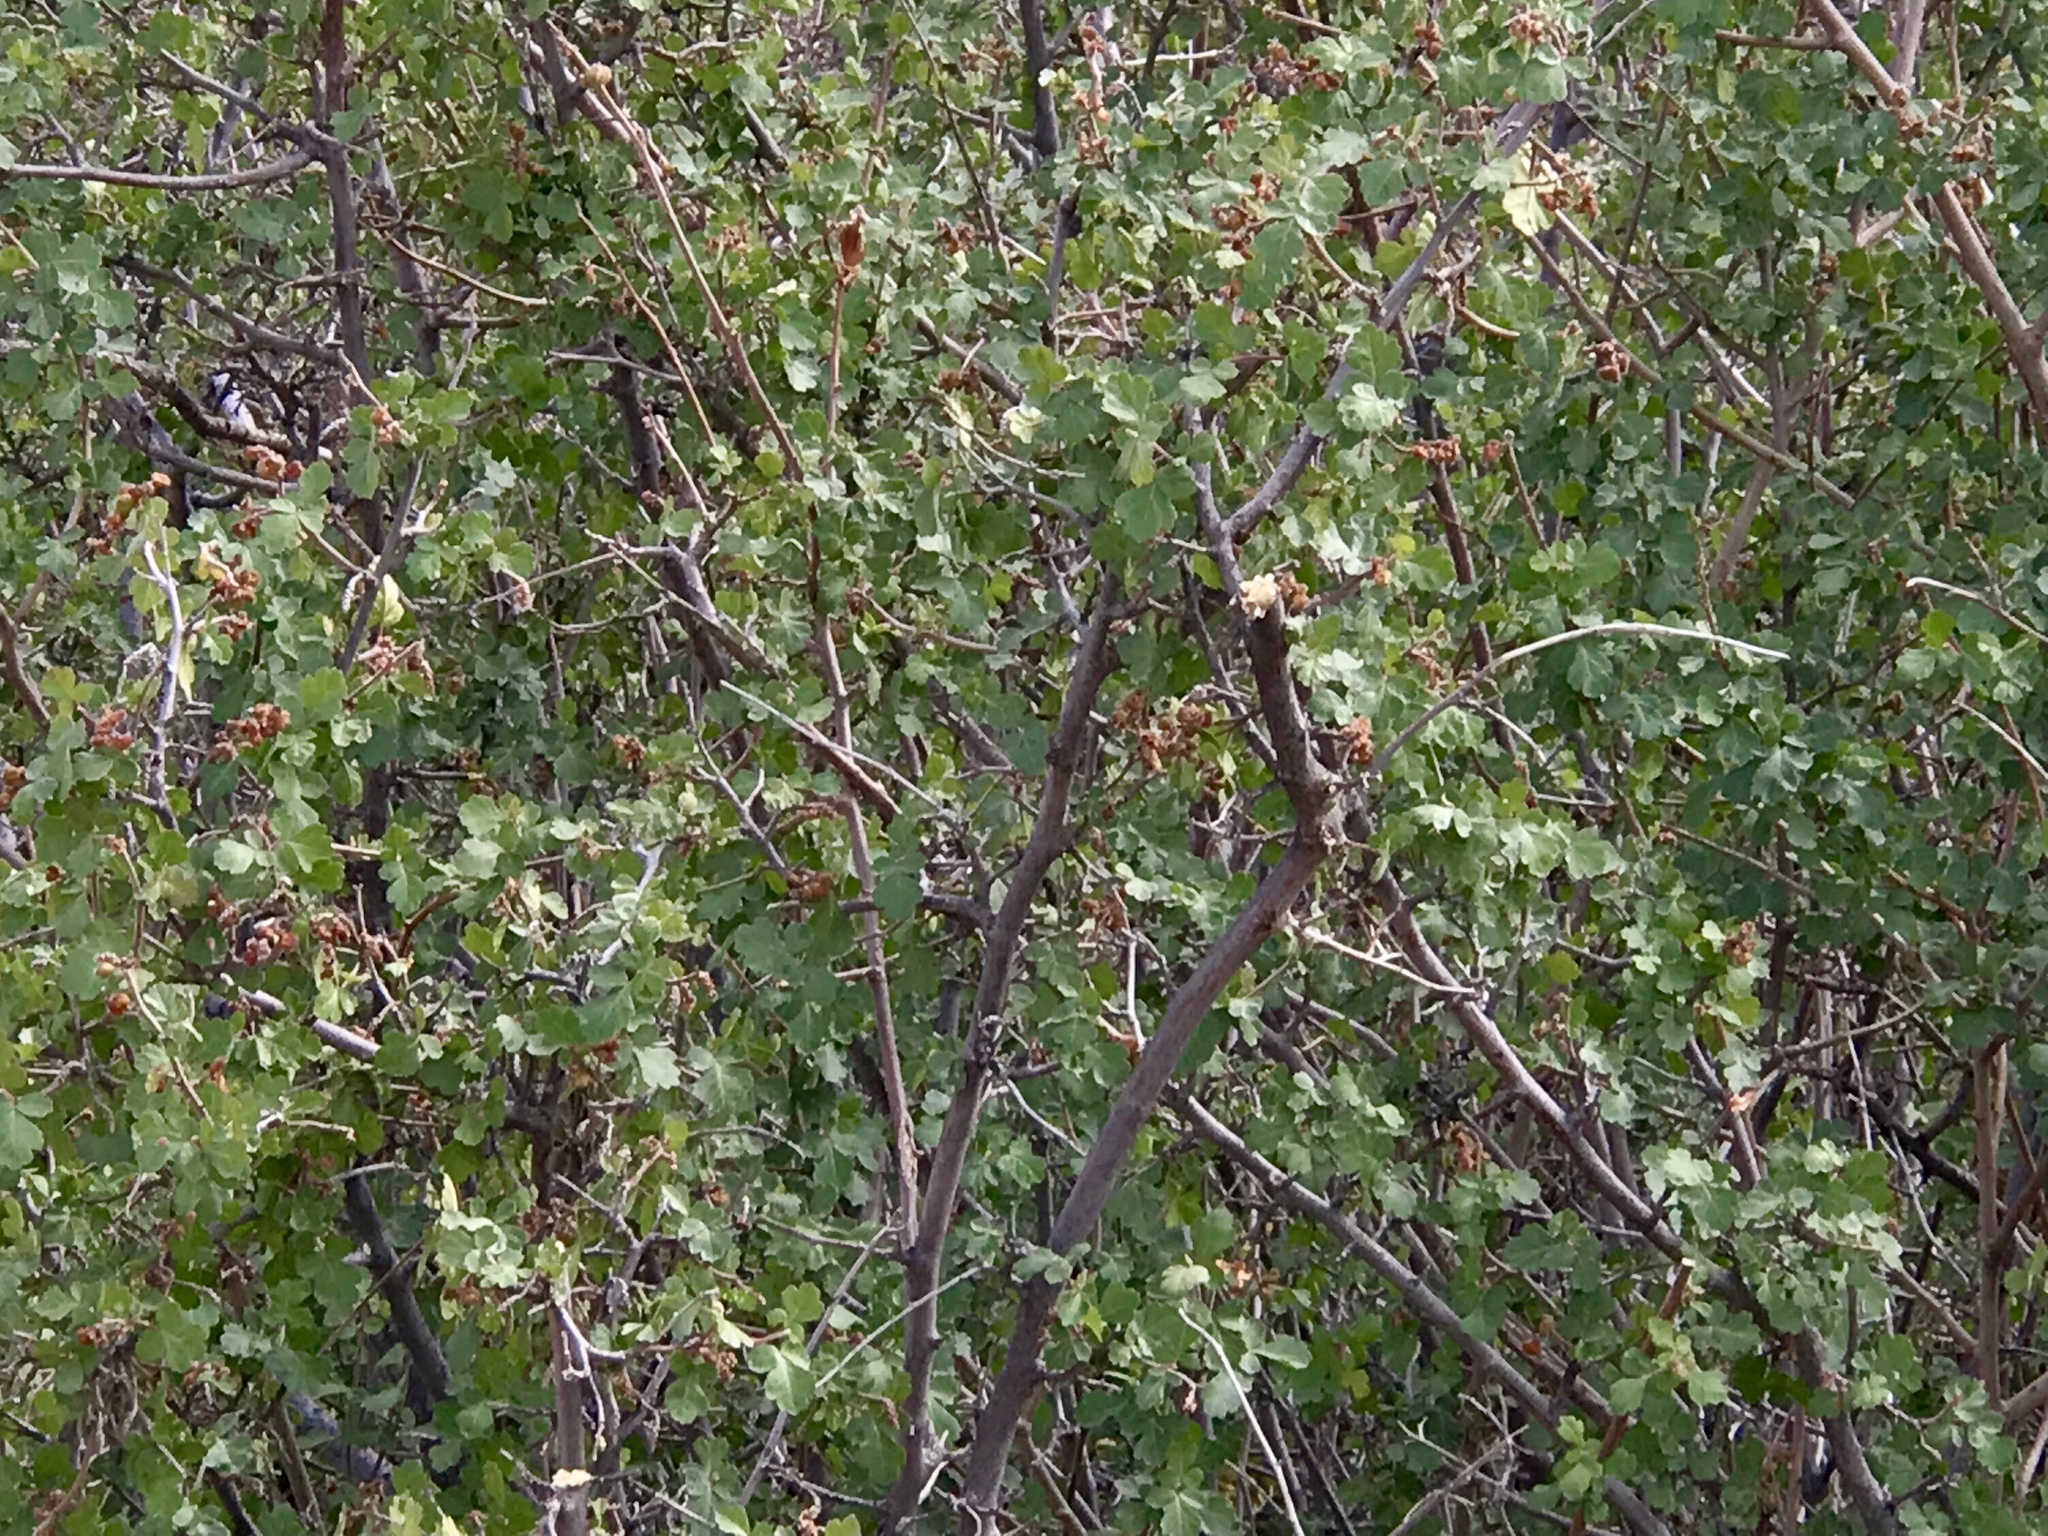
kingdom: Plantae
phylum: Tracheophyta
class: Magnoliopsida
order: Sapindales
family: Anacardiaceae
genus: Rhus
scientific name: Rhus aromatica
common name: Aromatic sumac
